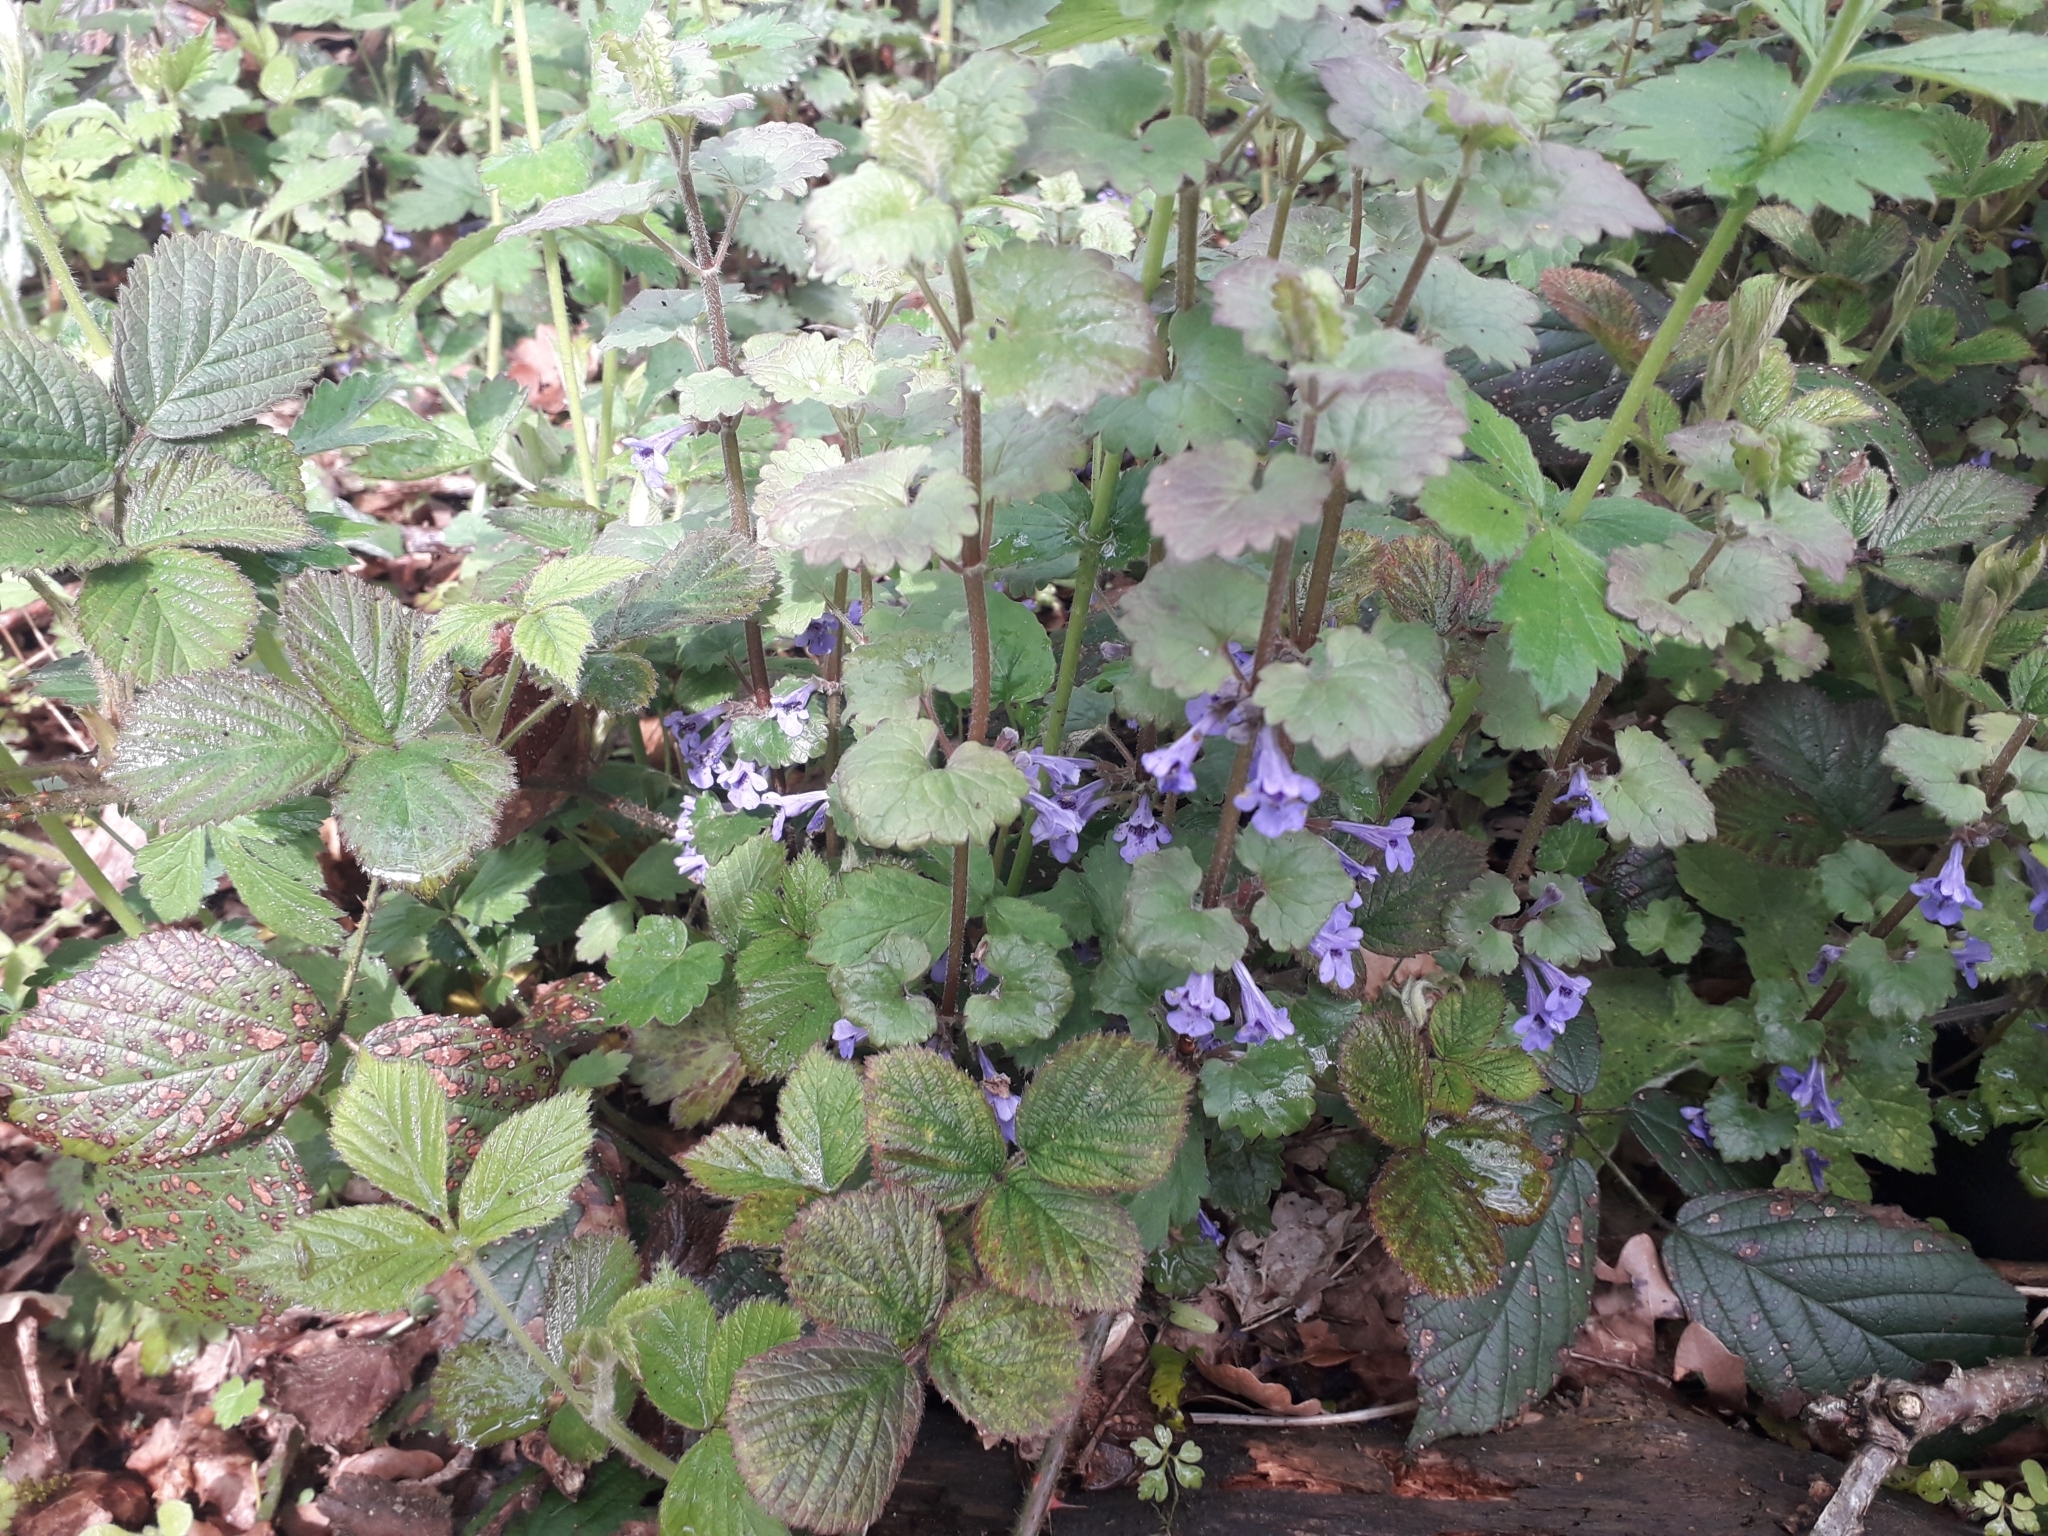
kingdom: Plantae
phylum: Tracheophyta
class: Magnoliopsida
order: Lamiales
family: Lamiaceae
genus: Glechoma
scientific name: Glechoma hederacea
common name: Ground ivy
